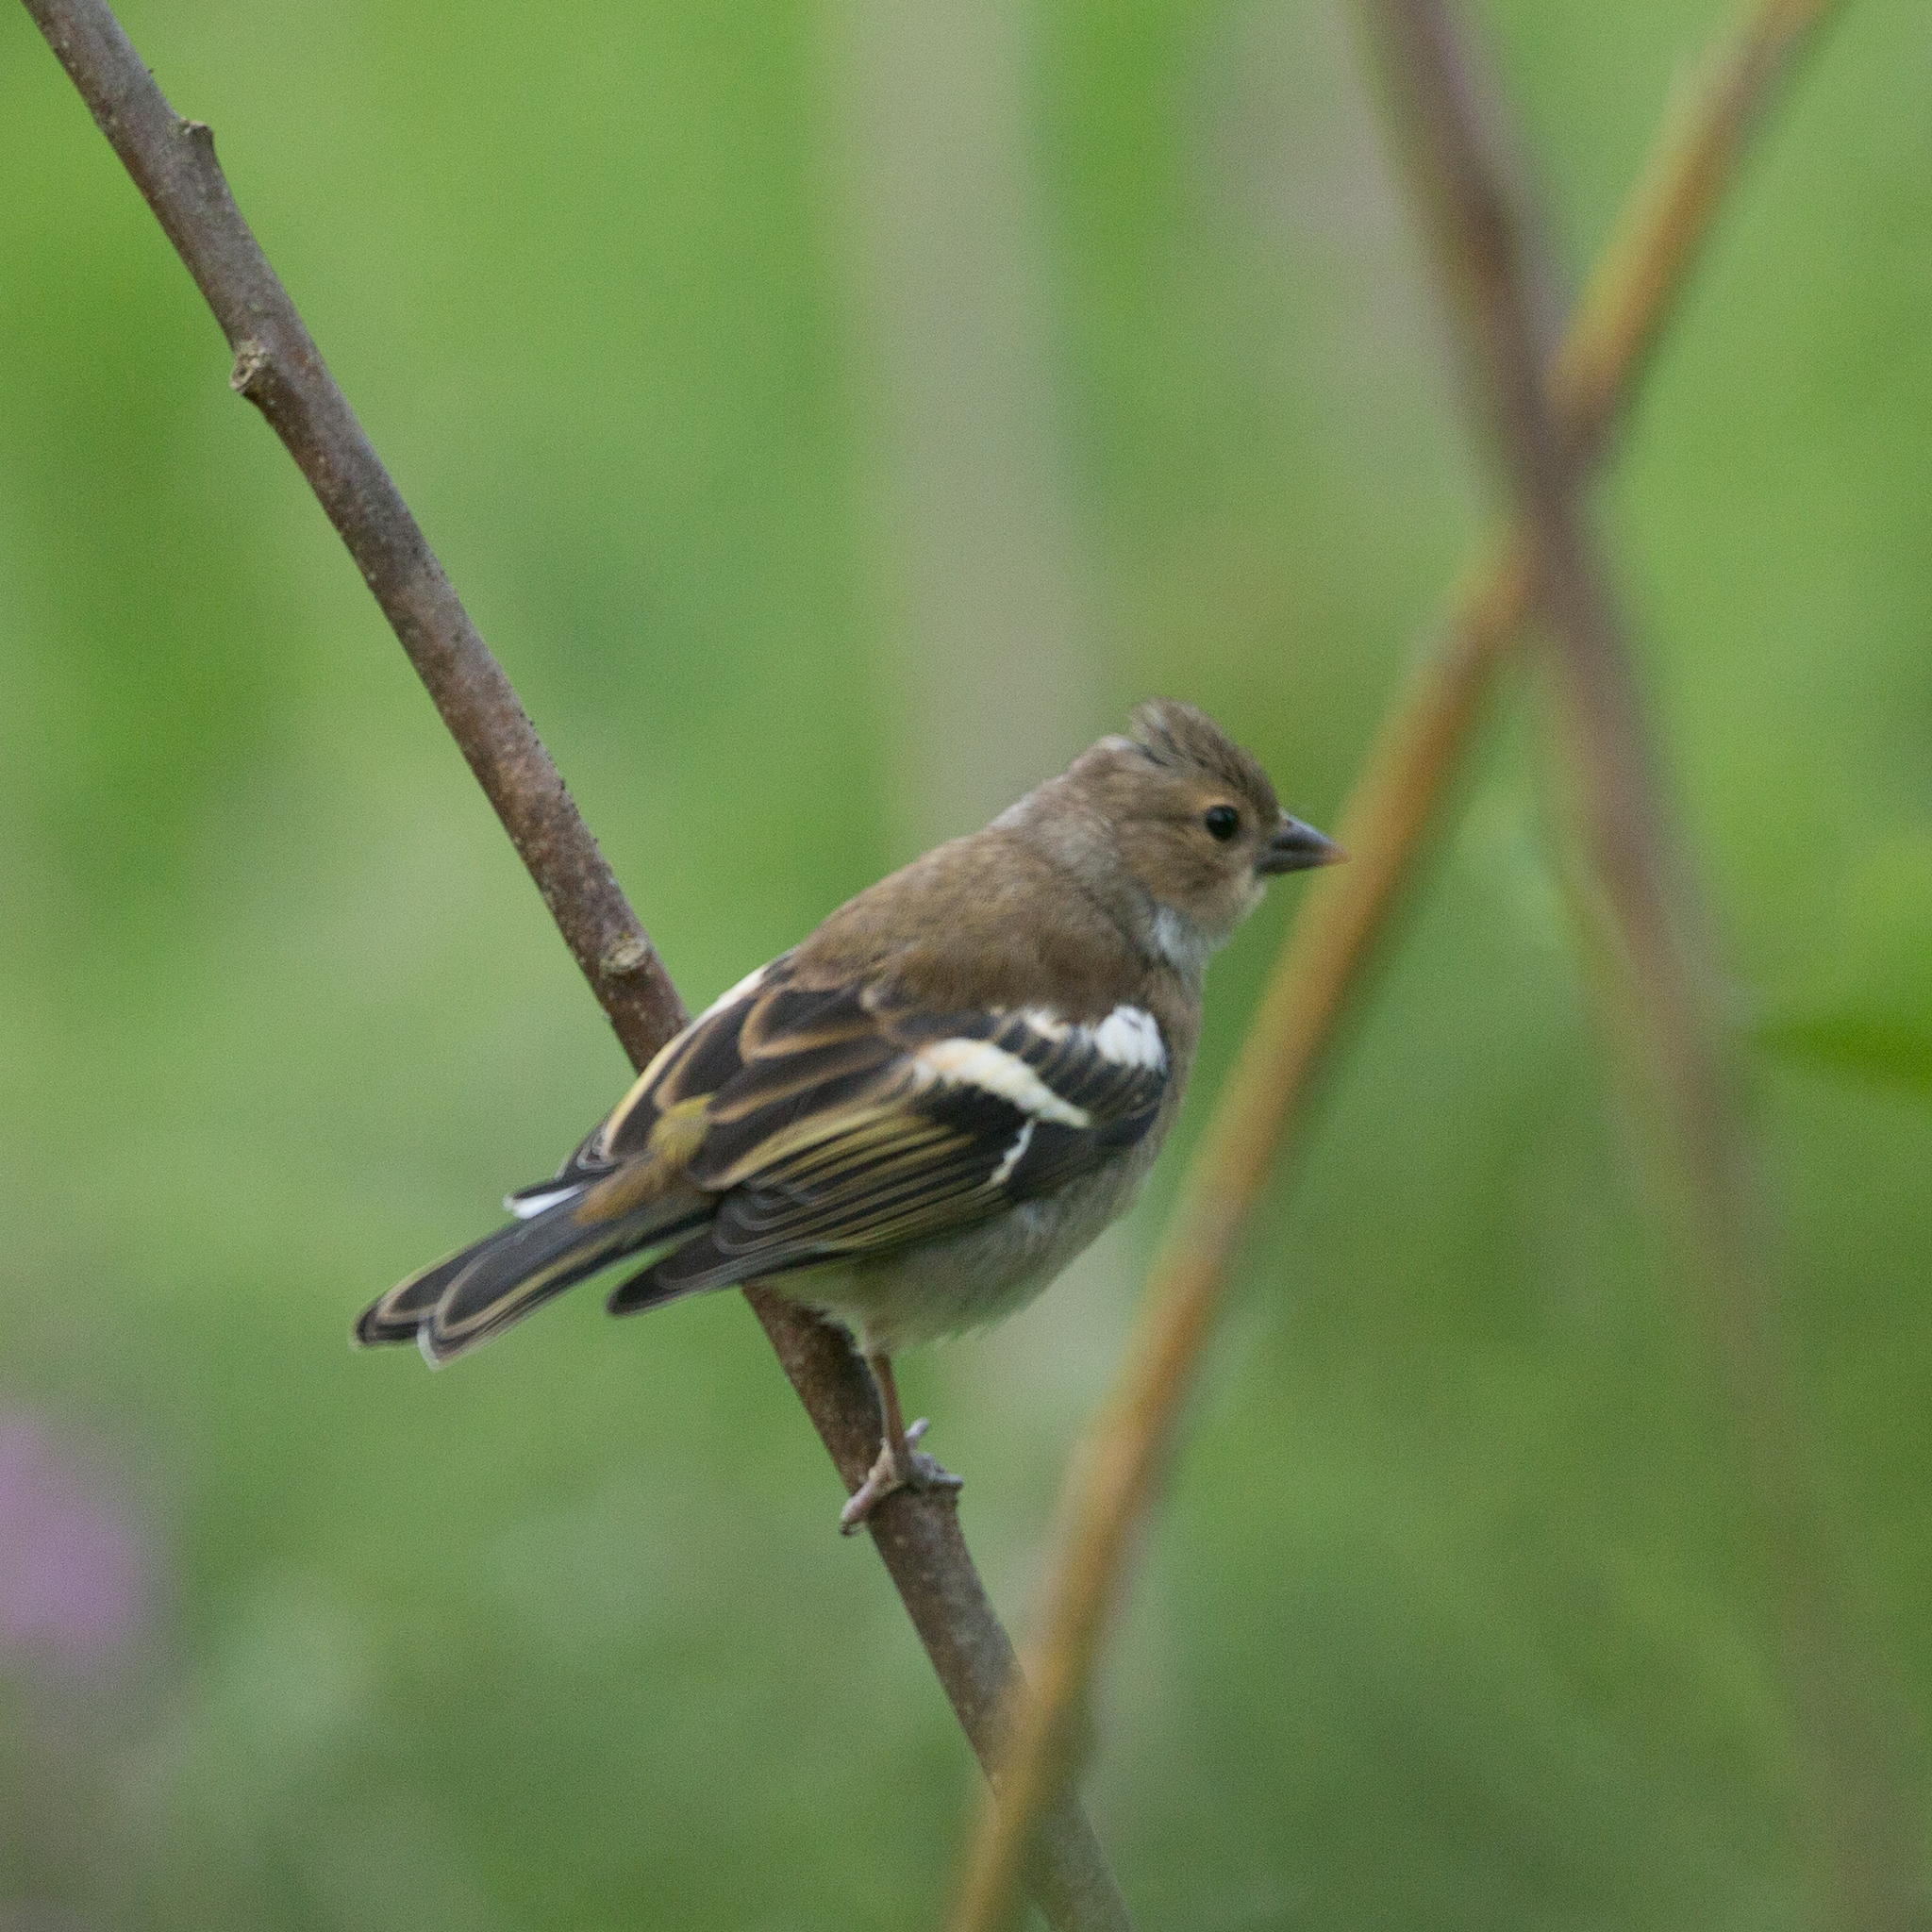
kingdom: Animalia
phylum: Chordata
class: Aves
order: Passeriformes
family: Fringillidae
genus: Fringilla
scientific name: Fringilla coelebs
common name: Common chaffinch
